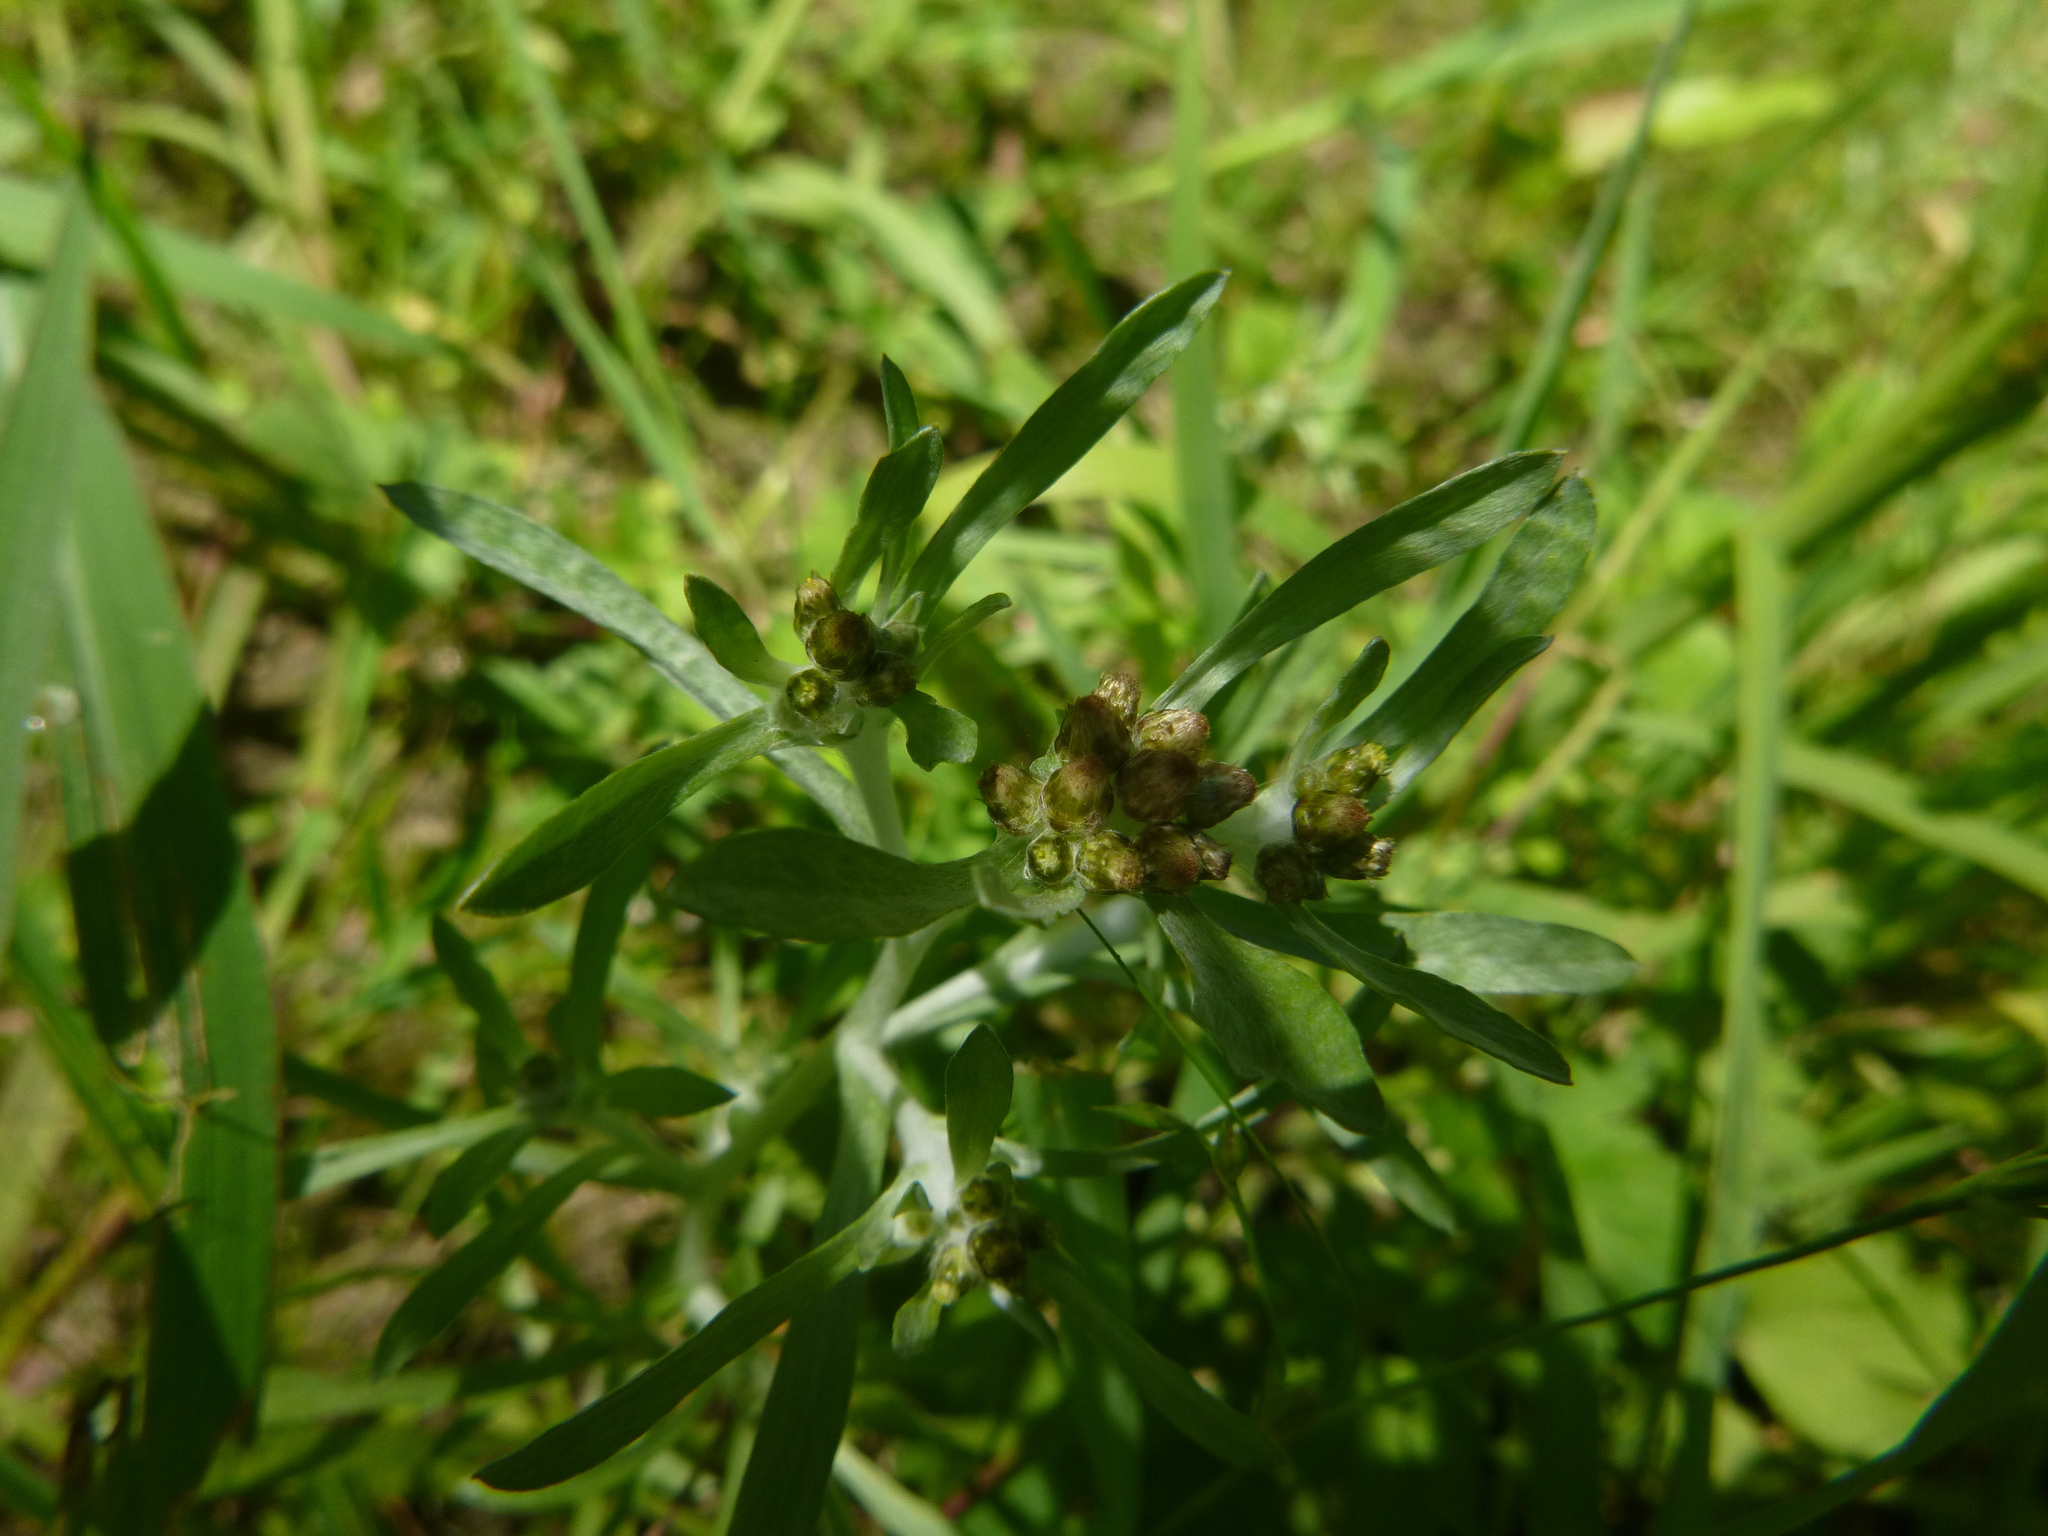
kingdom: Plantae
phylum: Tracheophyta
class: Magnoliopsida
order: Asterales
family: Asteraceae
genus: Gnaphalium
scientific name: Gnaphalium uliginosum
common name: Marsh cudweed
